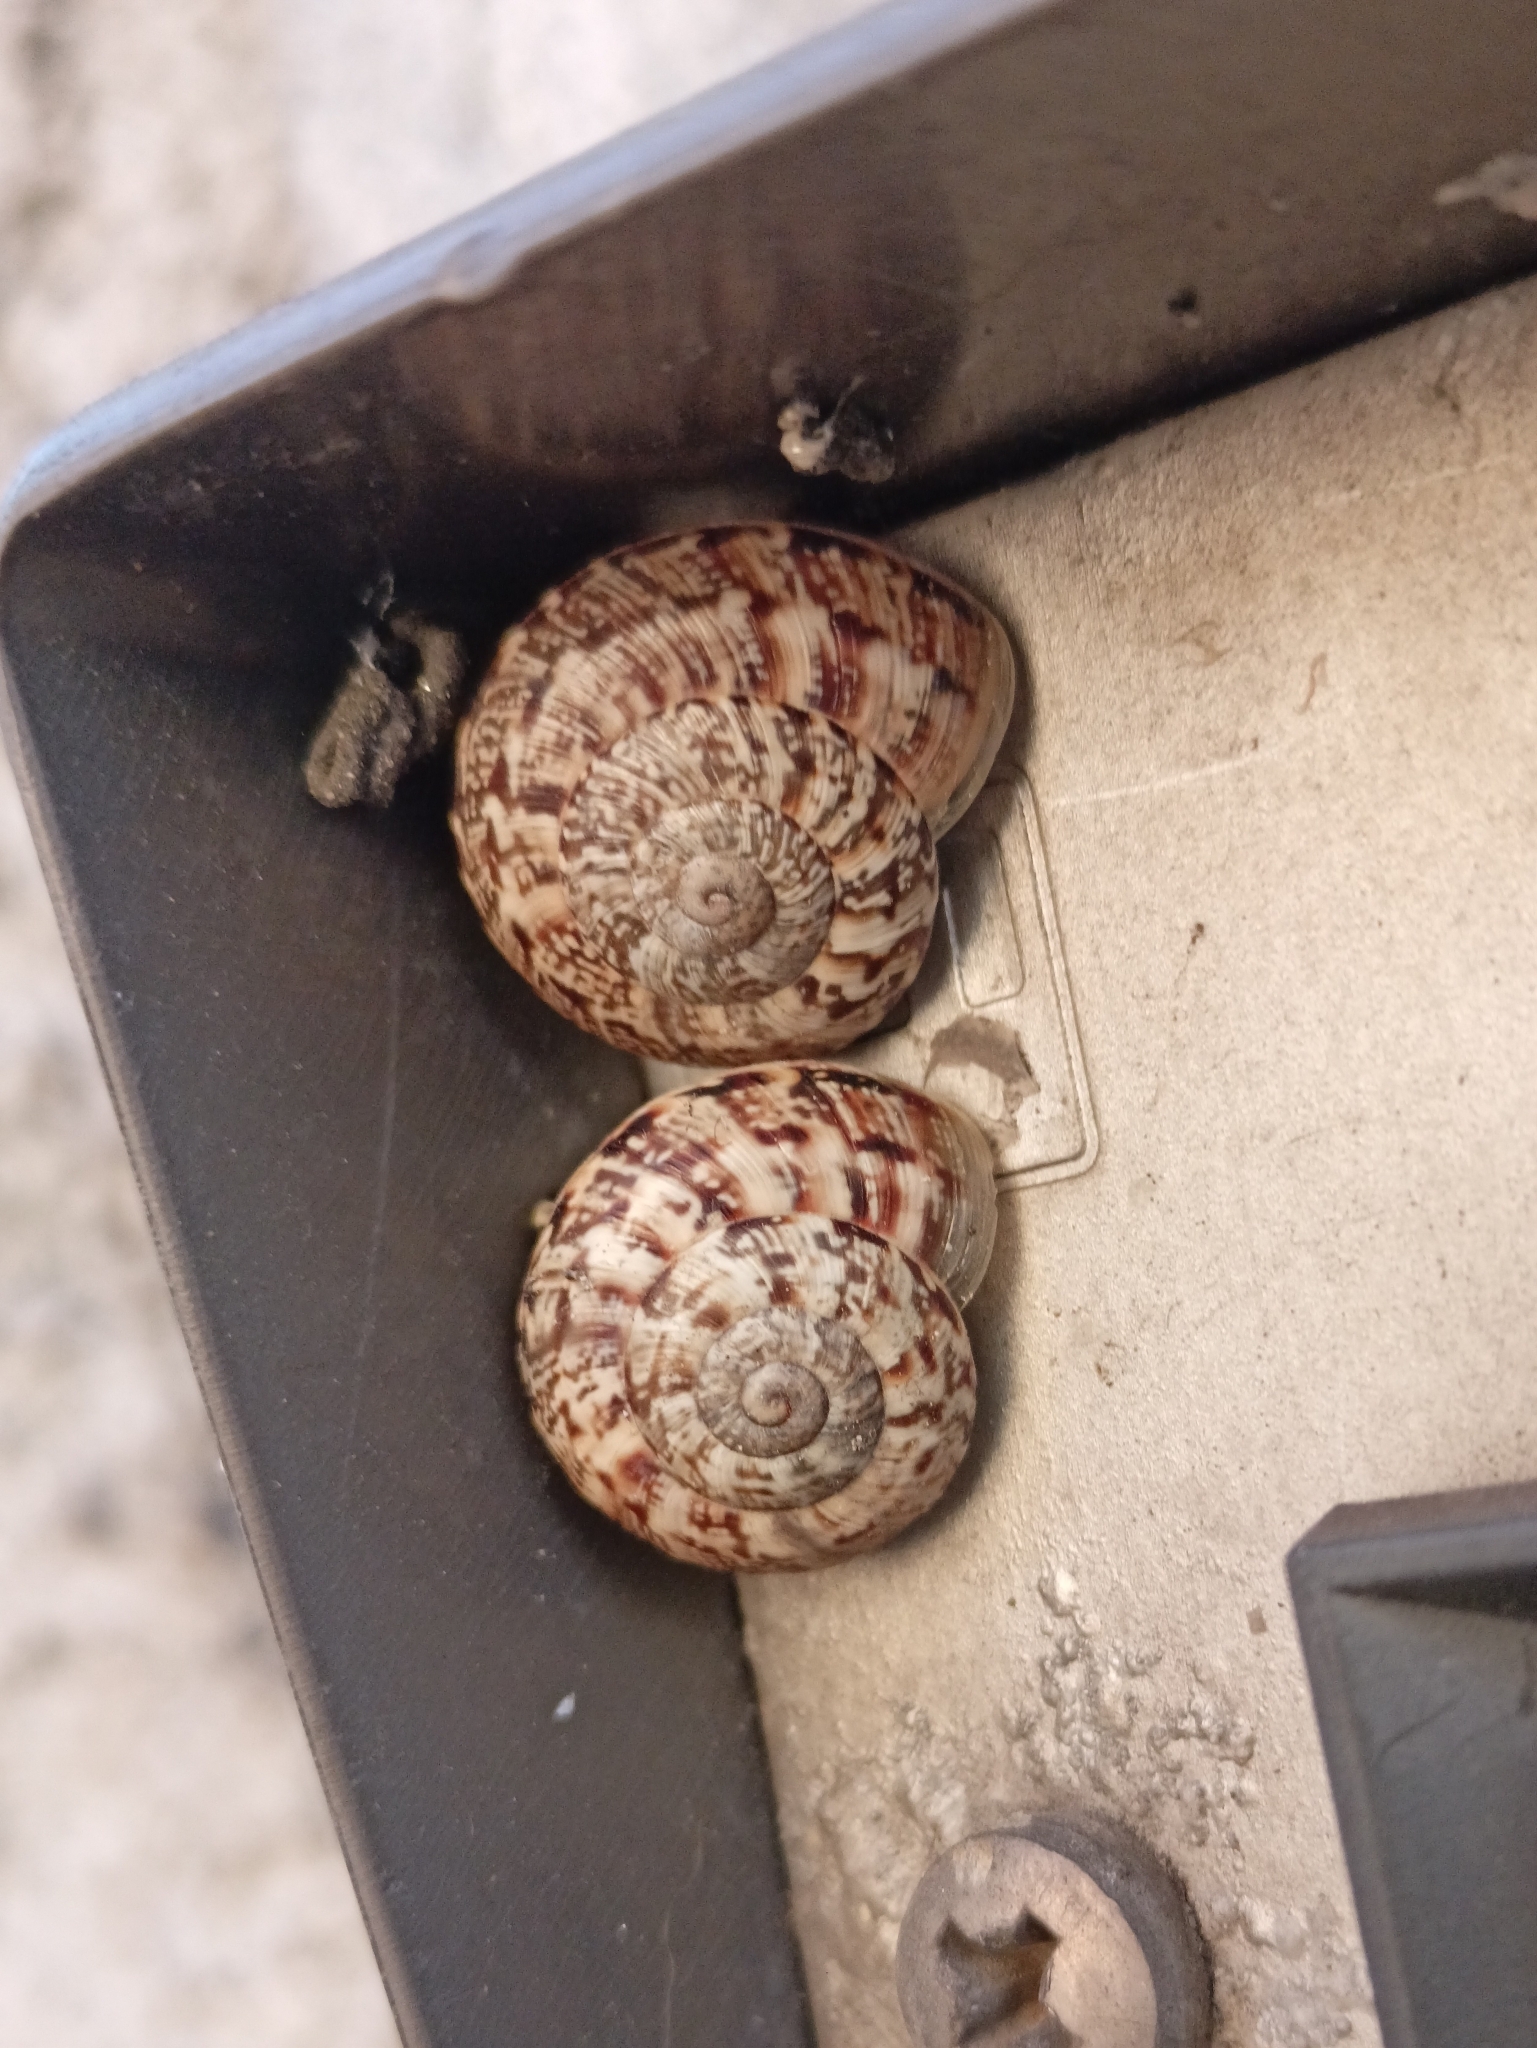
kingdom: Animalia
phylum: Mollusca
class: Gastropoda
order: Stylommatophora
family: Helicidae
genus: Marmorana
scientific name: Marmorana serpentina
